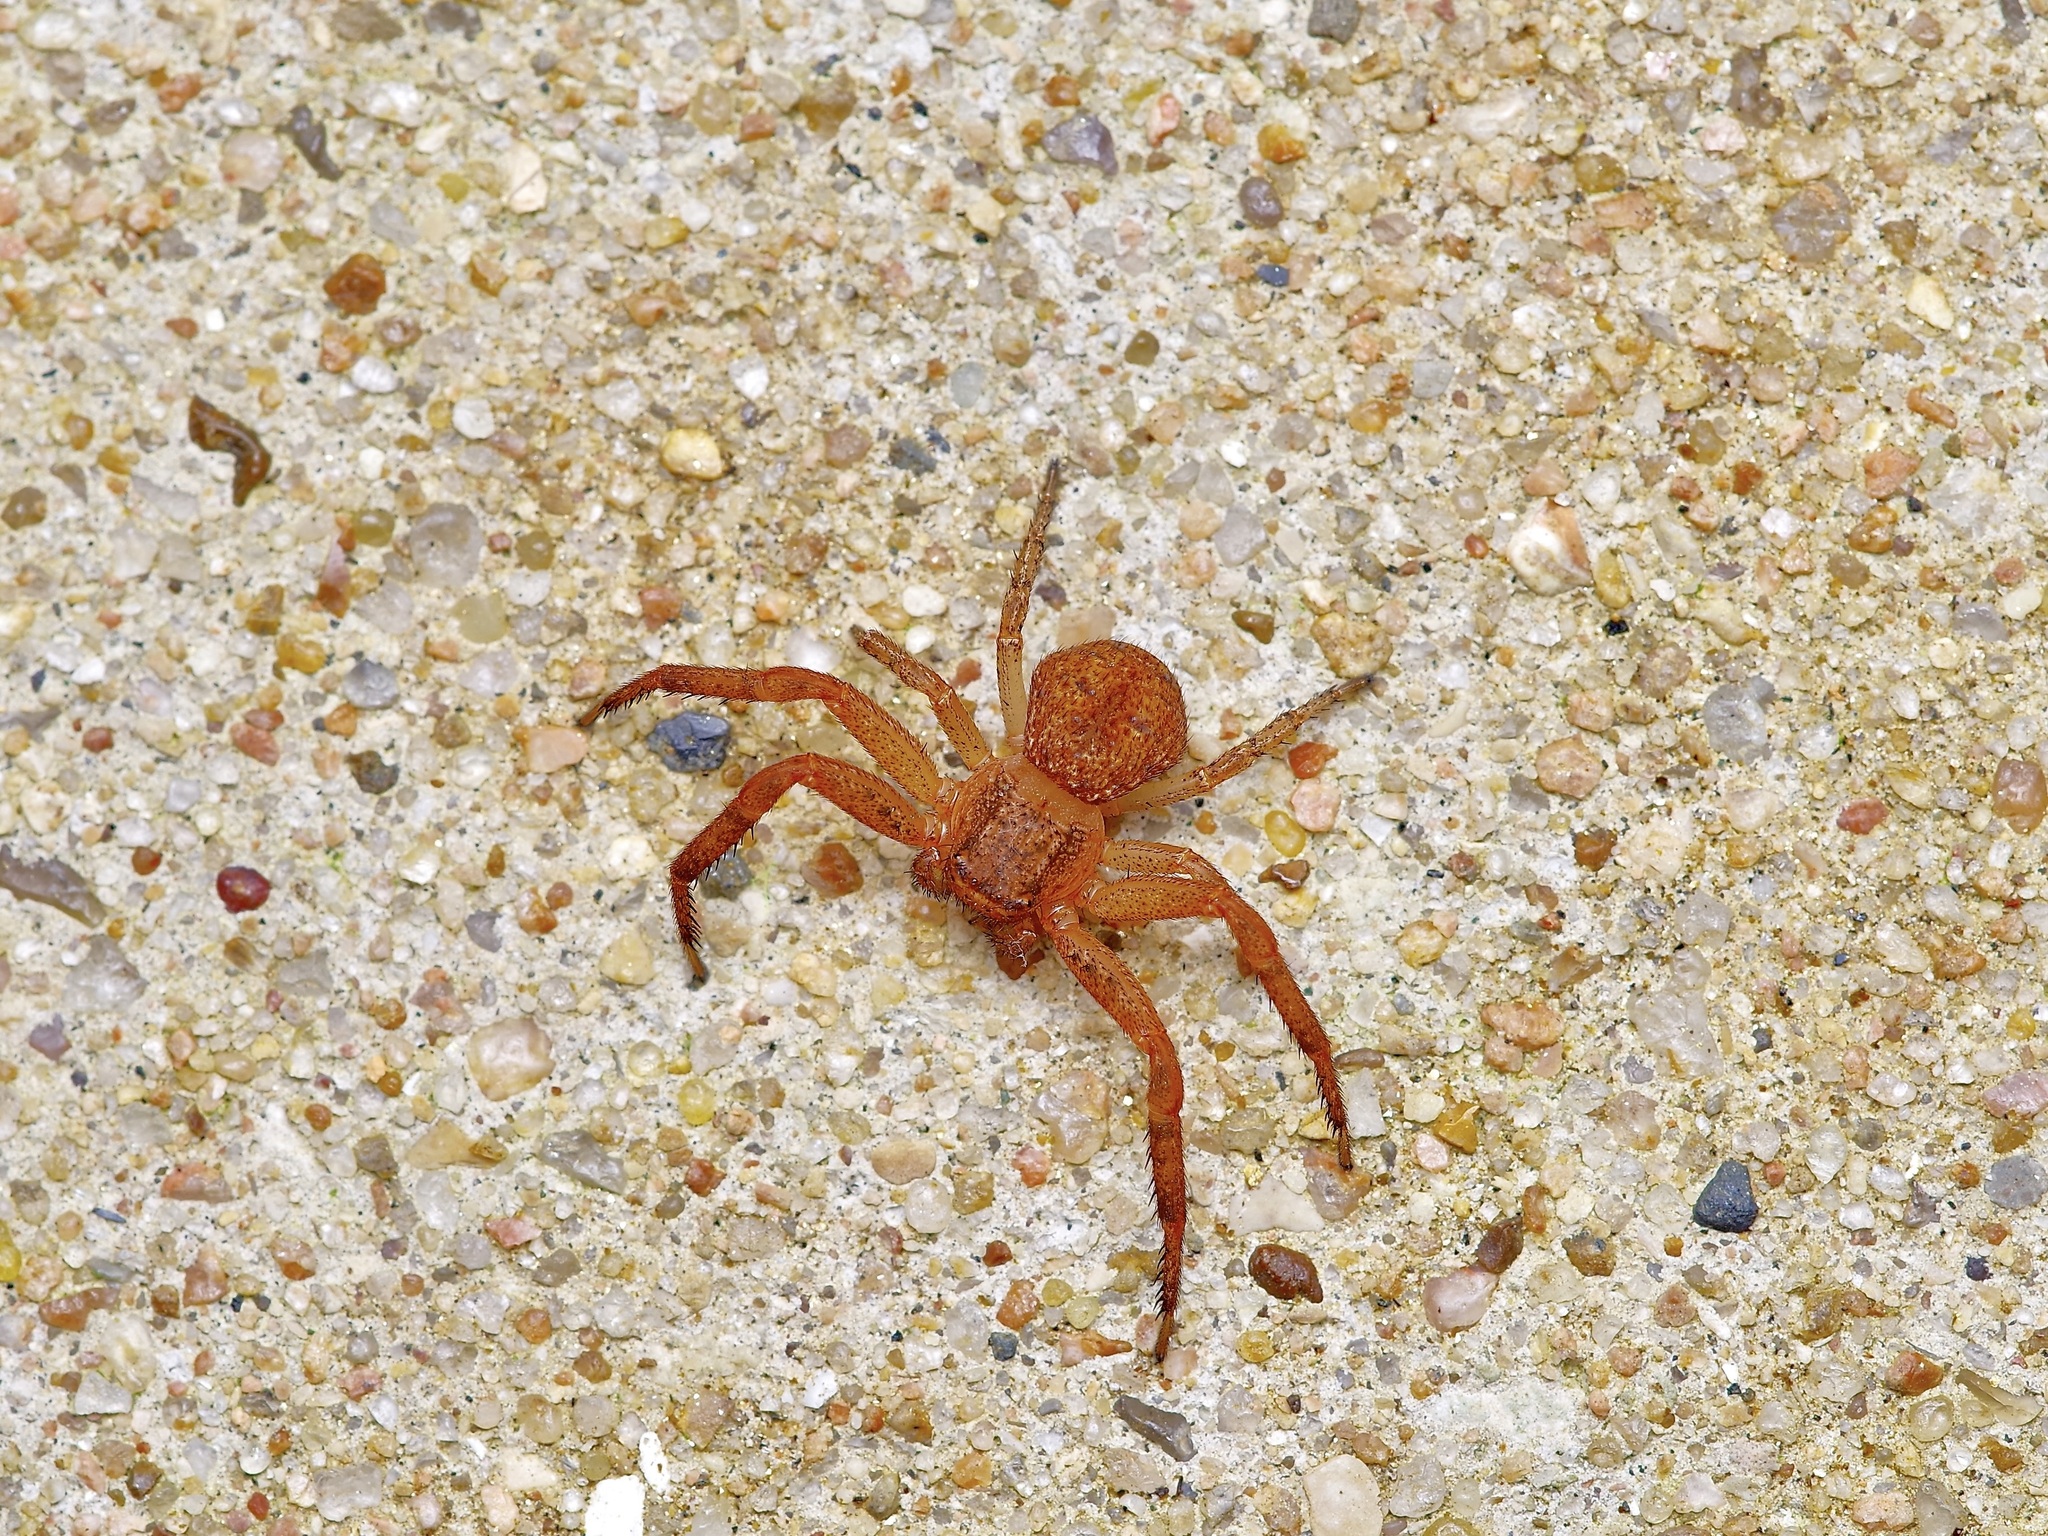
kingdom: Animalia
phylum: Arthropoda
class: Arachnida
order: Araneae
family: Thomisidae
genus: Xysticus
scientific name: Xysticus funestus
